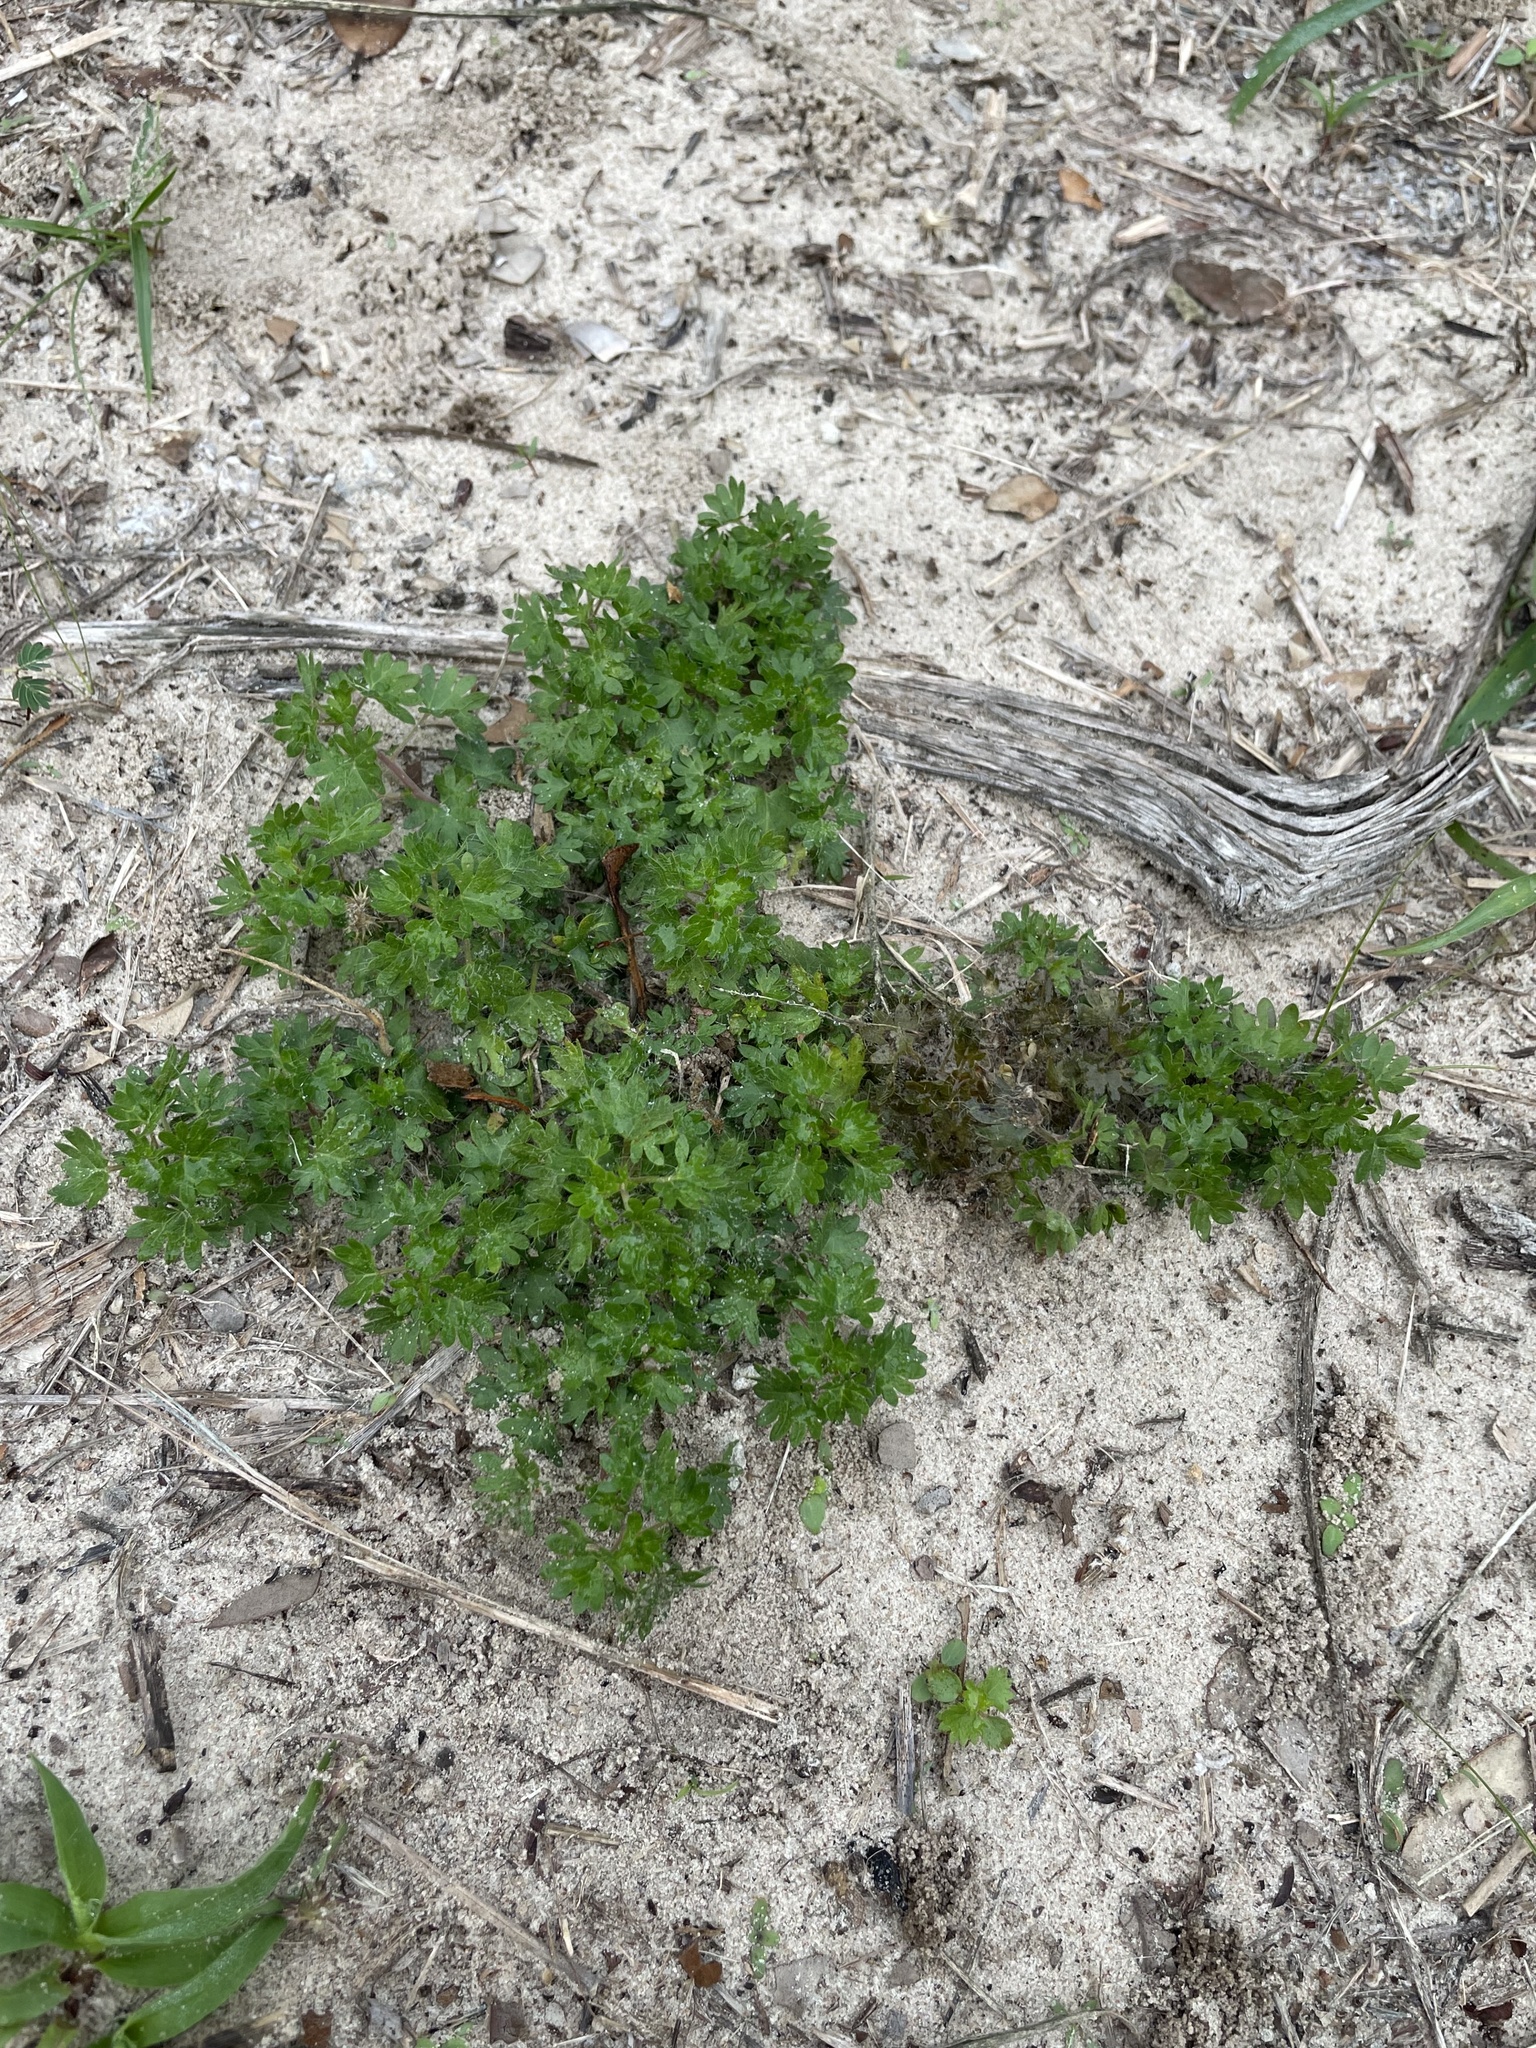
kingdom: Plantae
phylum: Tracheophyta
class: Magnoliopsida
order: Malpighiales
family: Euphorbiaceae
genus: Acalypha
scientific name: Acalypha radians
